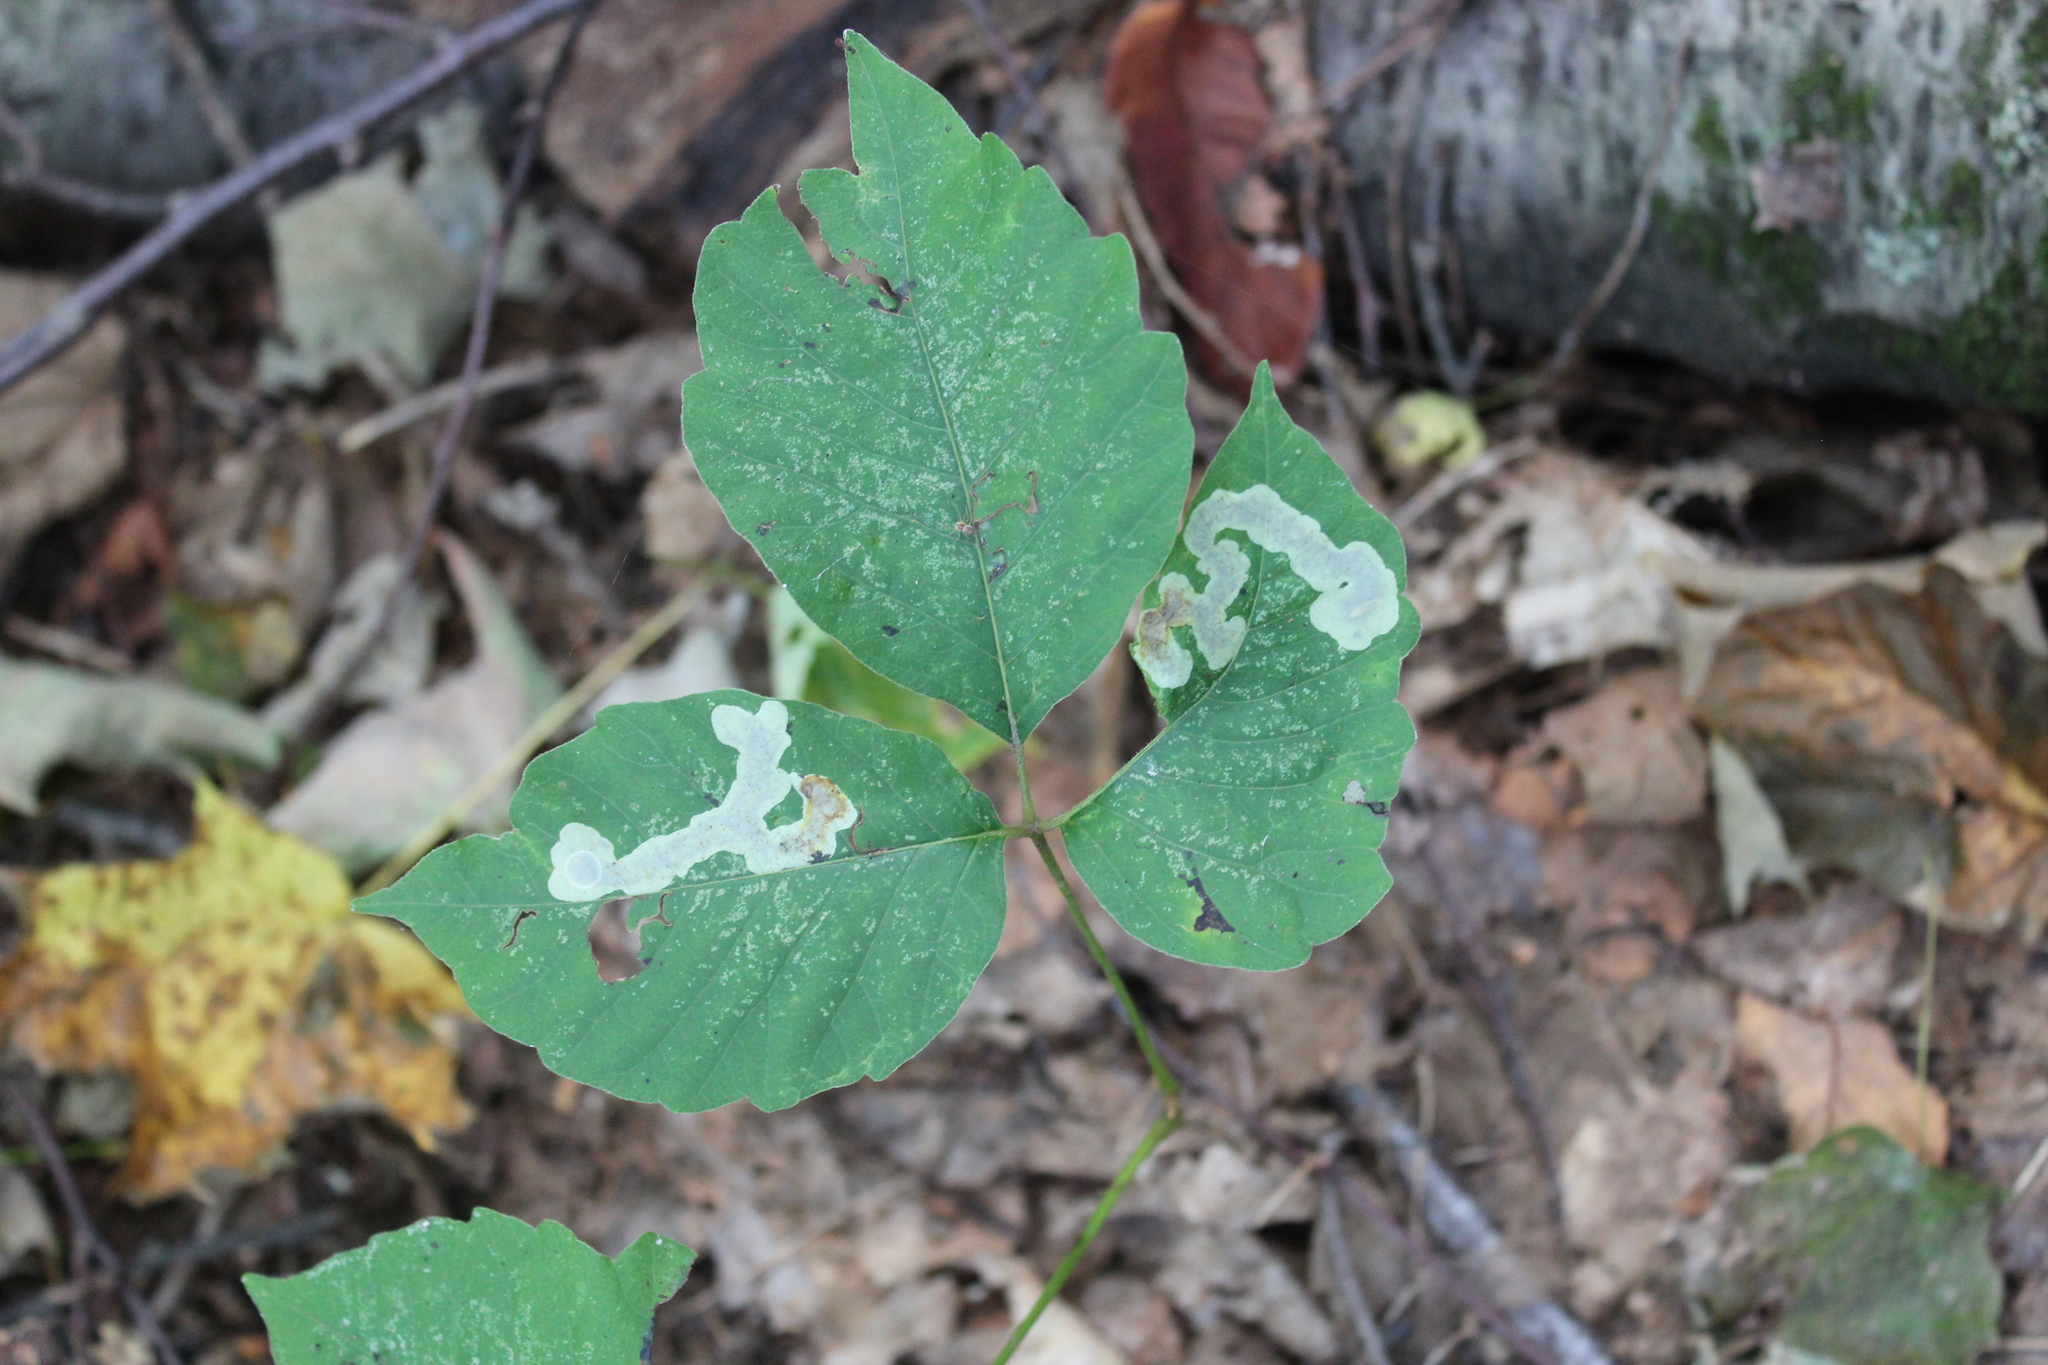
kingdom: Plantae
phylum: Tracheophyta
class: Magnoliopsida
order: Sapindales
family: Anacardiaceae
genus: Toxicodendron
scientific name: Toxicodendron radicans
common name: Poison ivy
